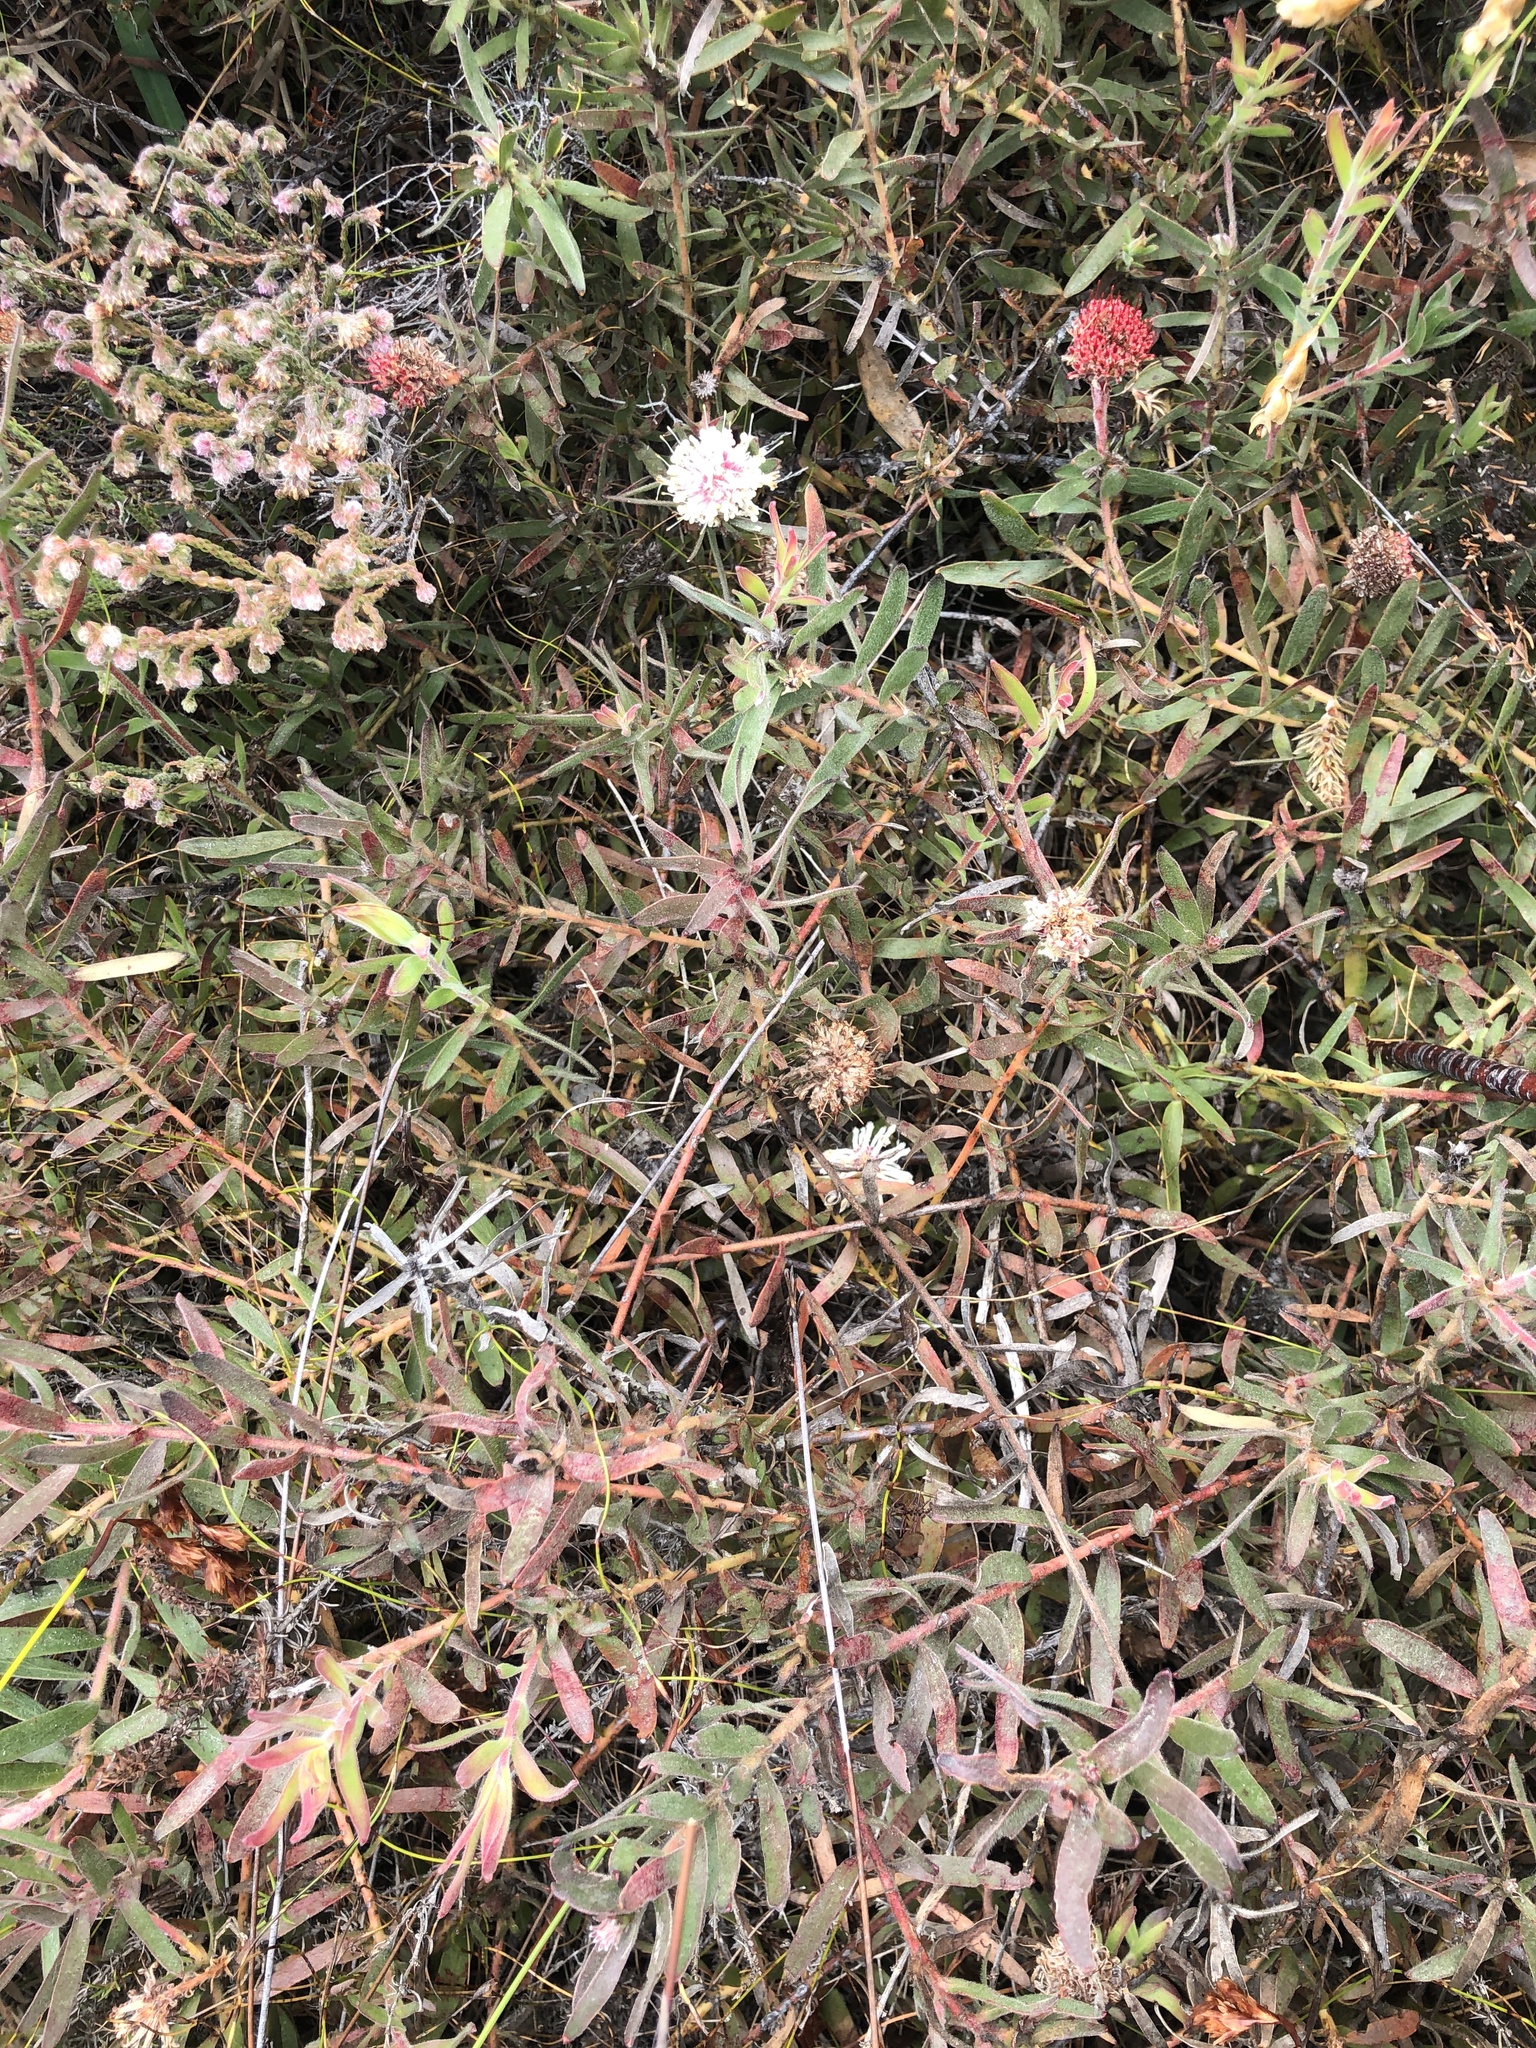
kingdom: Plantae
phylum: Tracheophyta
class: Magnoliopsida
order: Proteales
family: Proteaceae
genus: Leucospermum
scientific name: Leucospermum pedunculatum
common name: White-trailing pincushion
